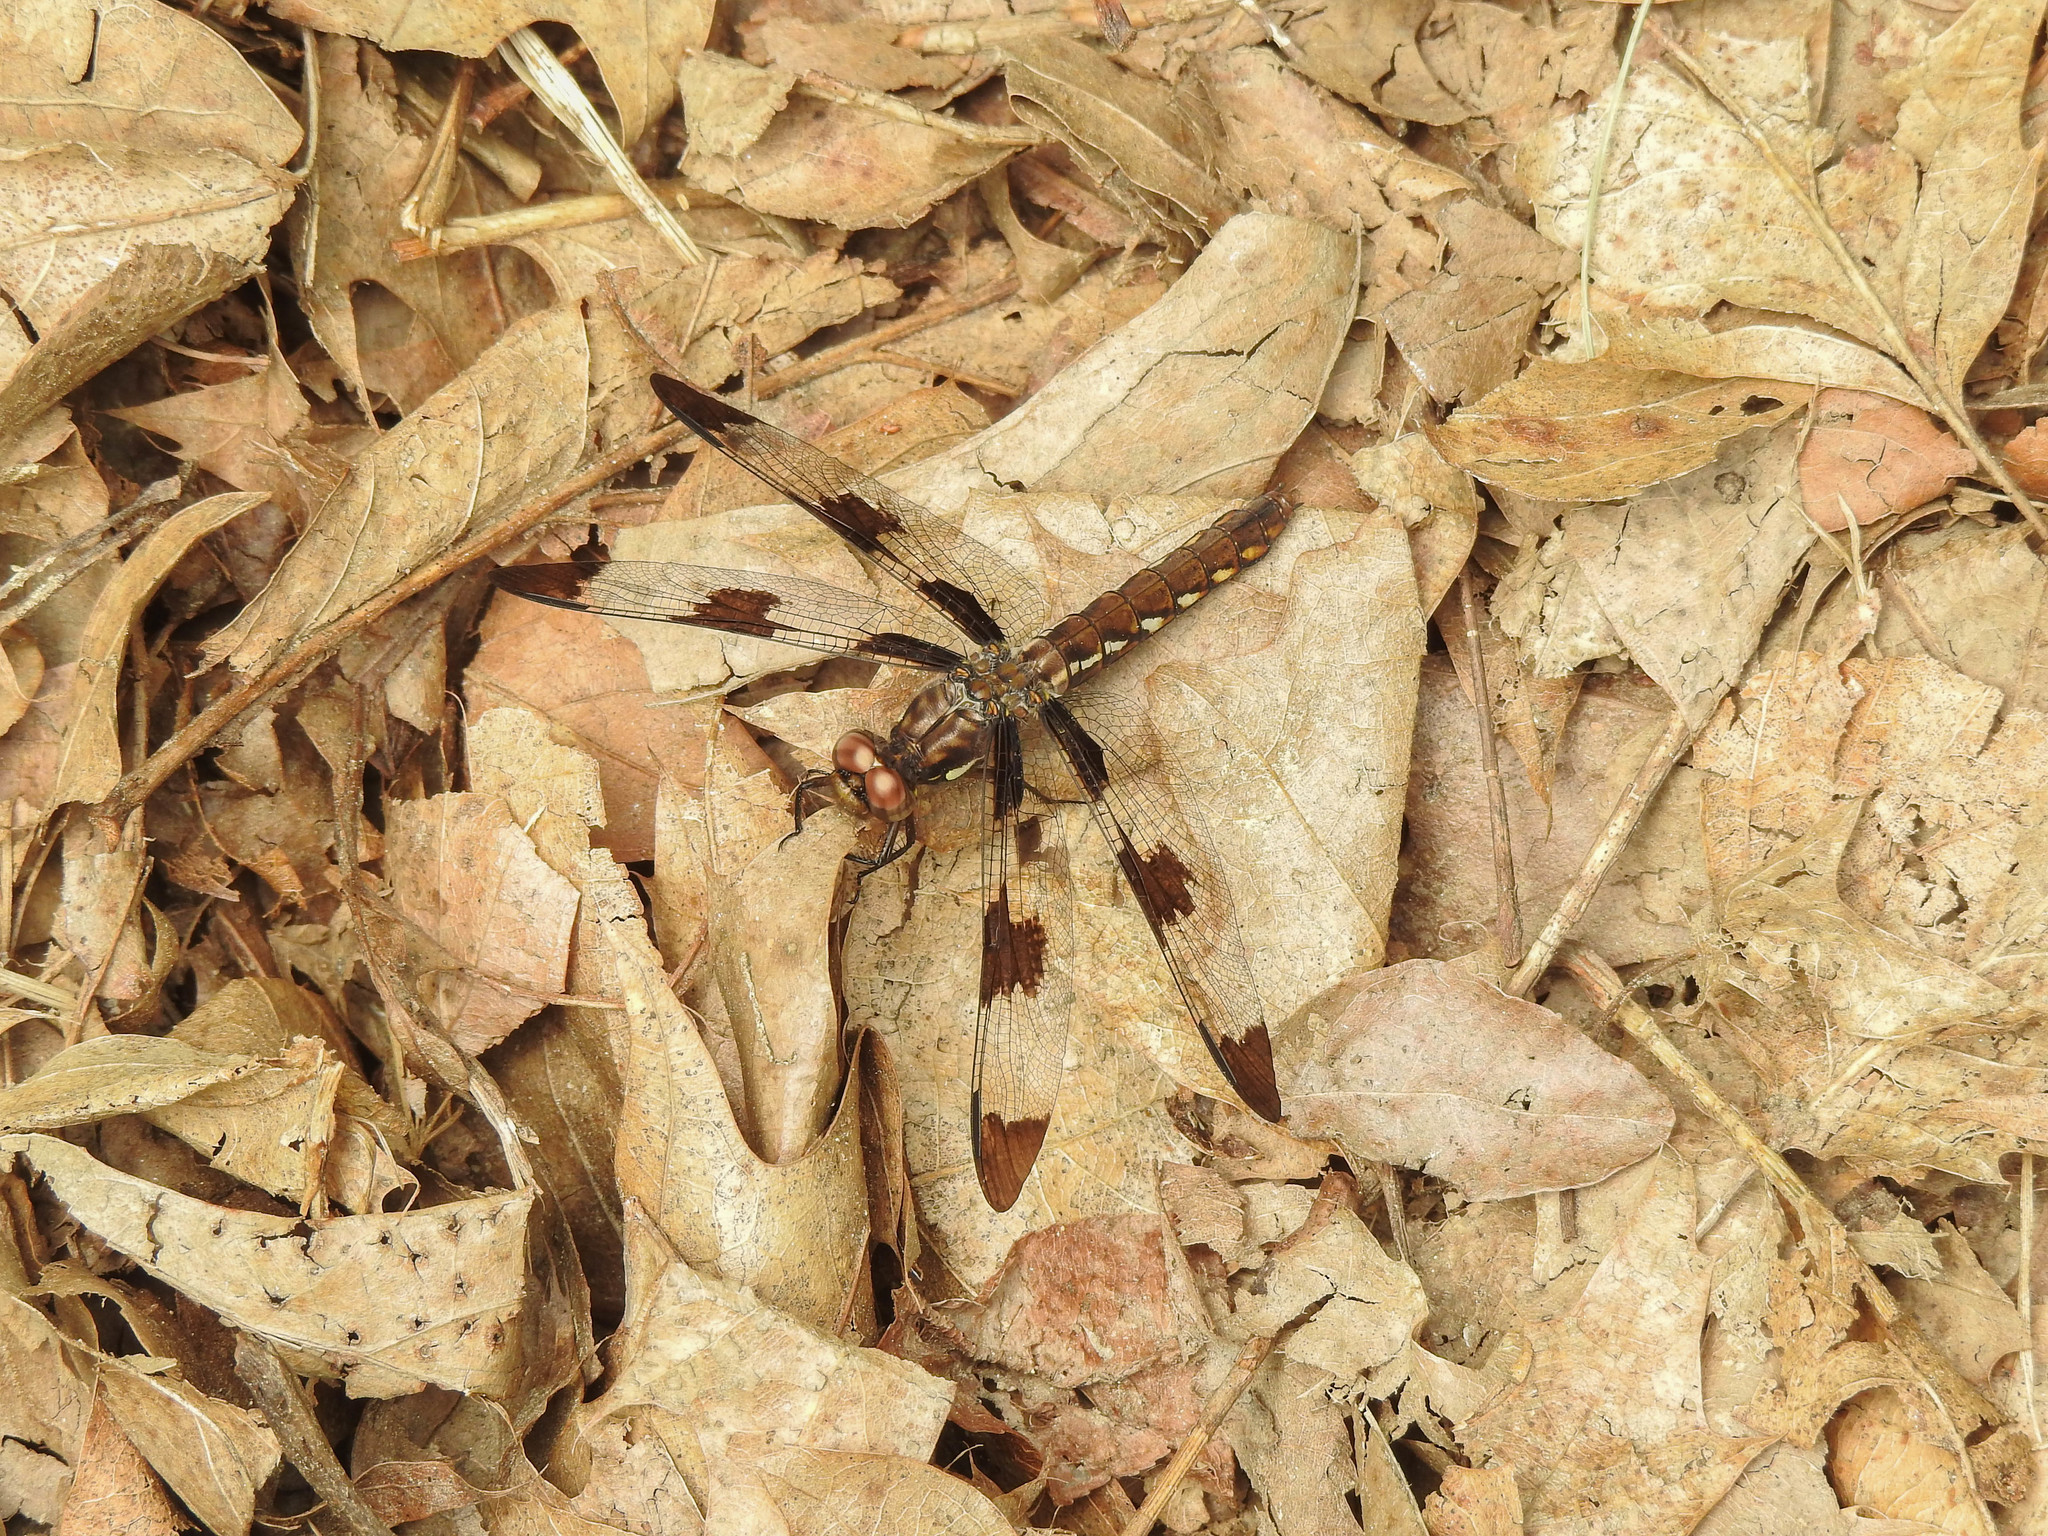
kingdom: Animalia
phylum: Arthropoda
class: Insecta
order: Odonata
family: Libellulidae
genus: Plathemis
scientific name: Plathemis lydia
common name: Common whitetail
